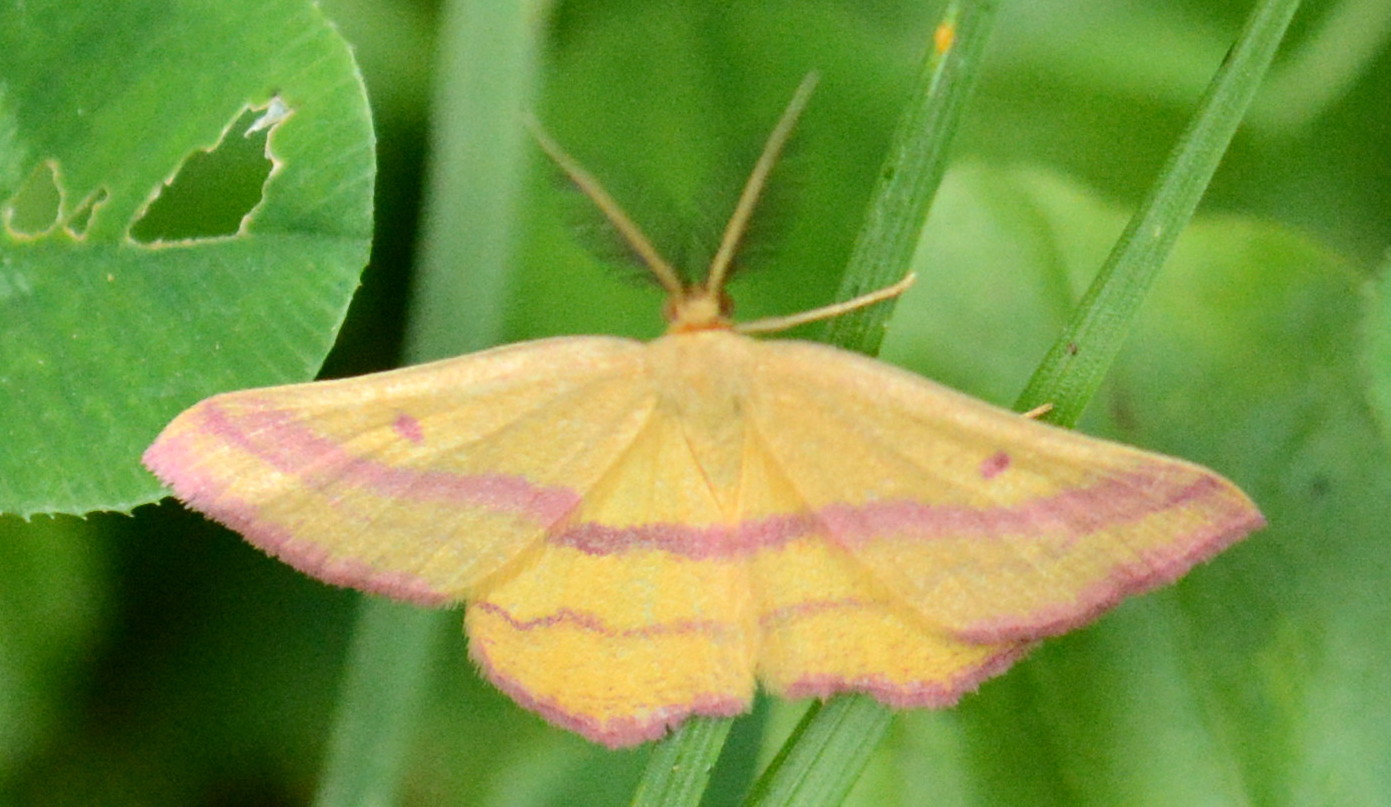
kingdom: Animalia
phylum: Arthropoda
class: Insecta
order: Lepidoptera
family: Geometridae
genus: Haematopis
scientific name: Haematopis grataria
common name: Chickweed geometer
